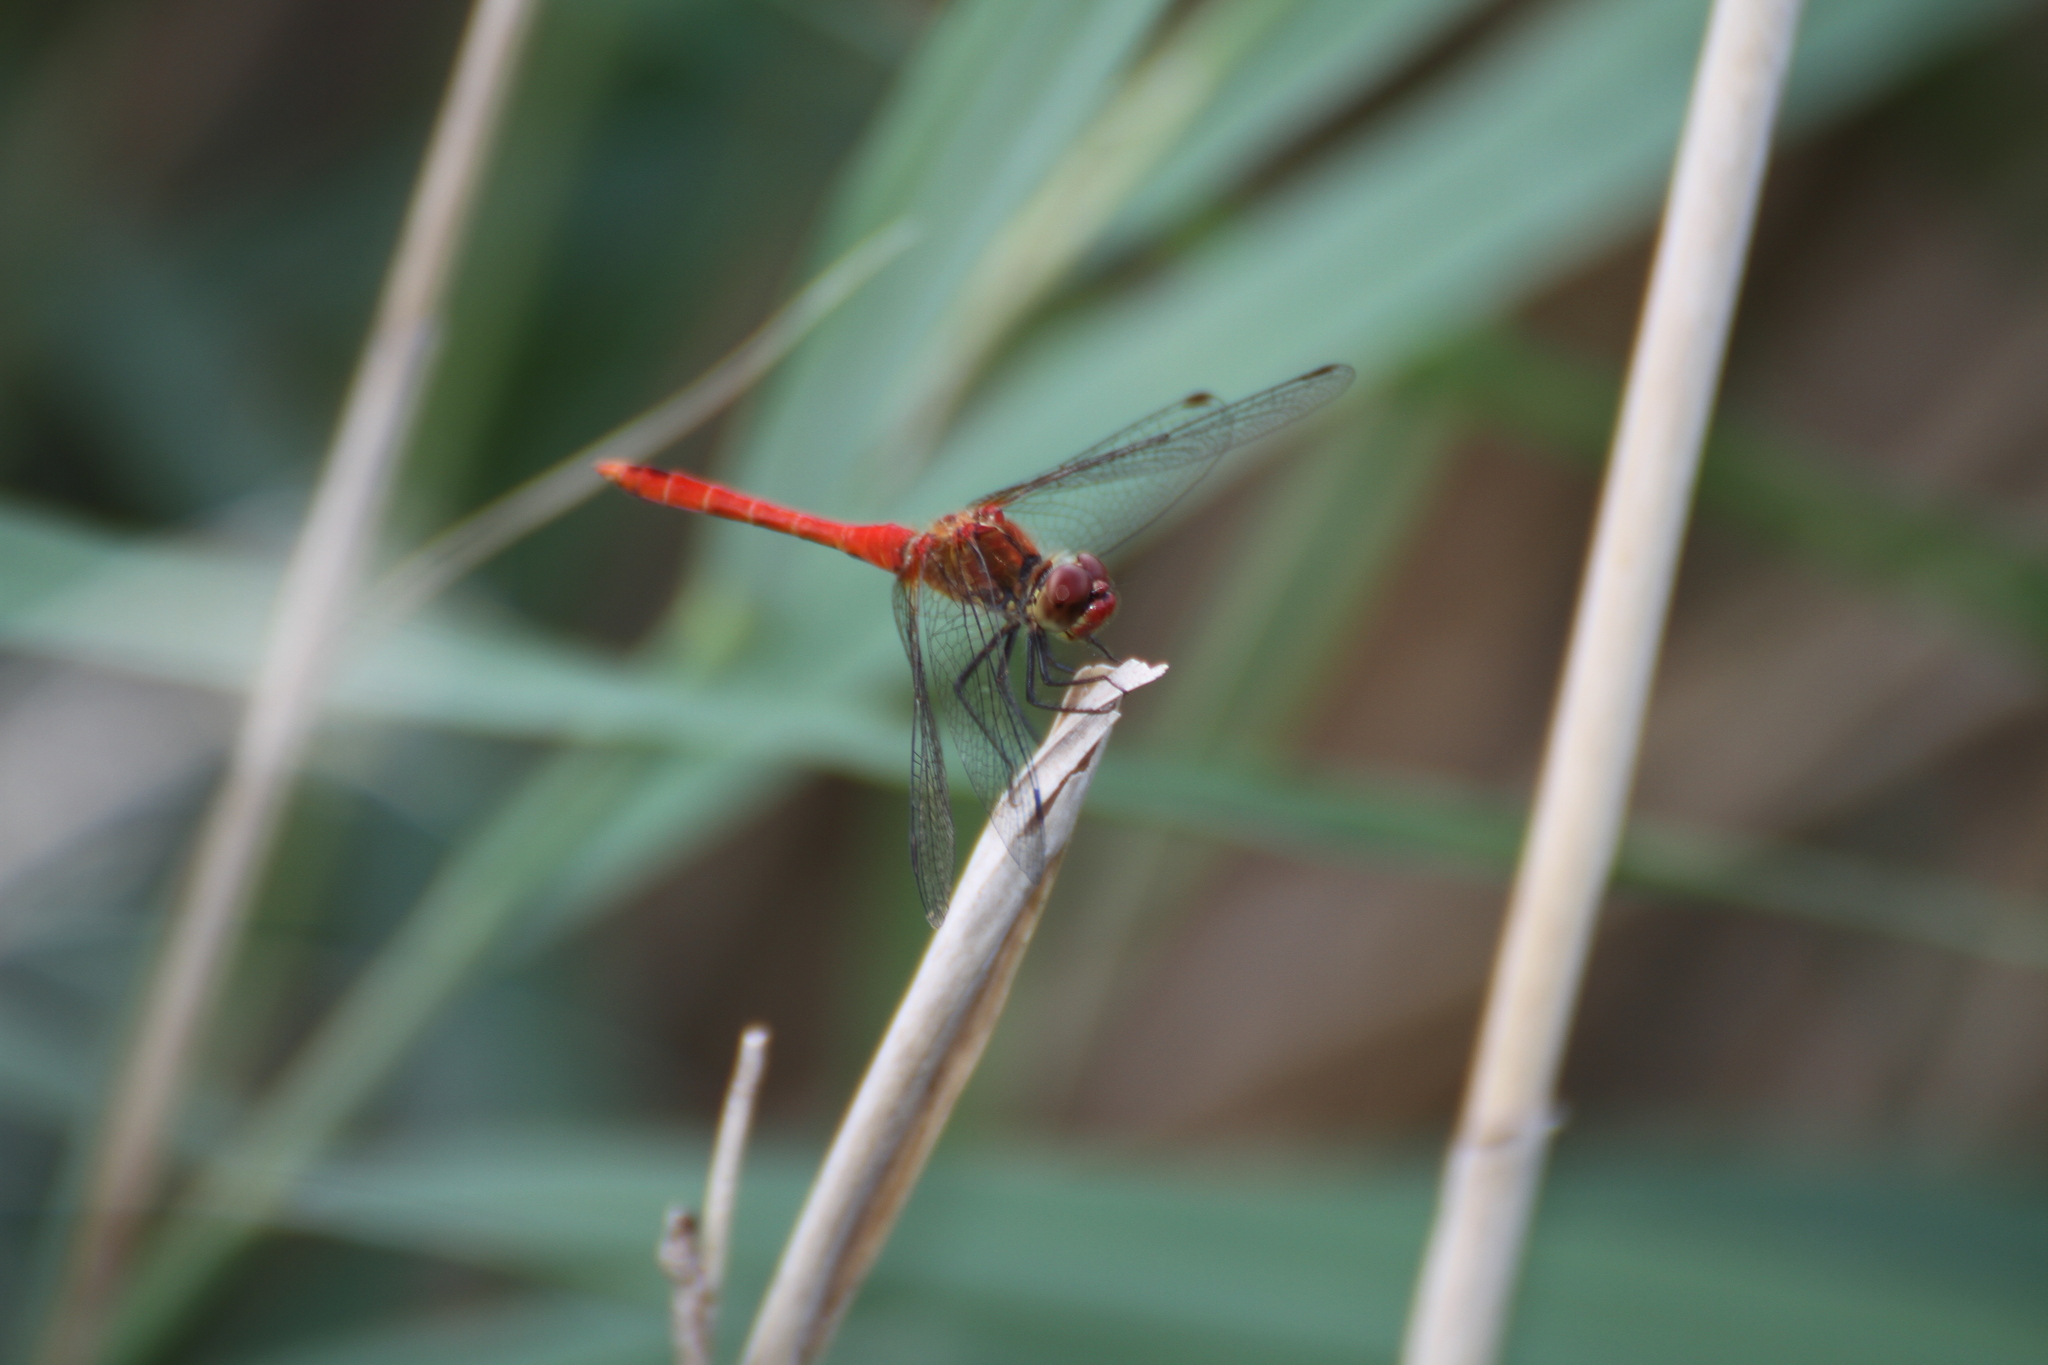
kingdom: Animalia
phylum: Arthropoda
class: Insecta
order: Odonata
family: Libellulidae
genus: Sympetrum
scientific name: Sympetrum sanguineum
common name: Ruddy darter
